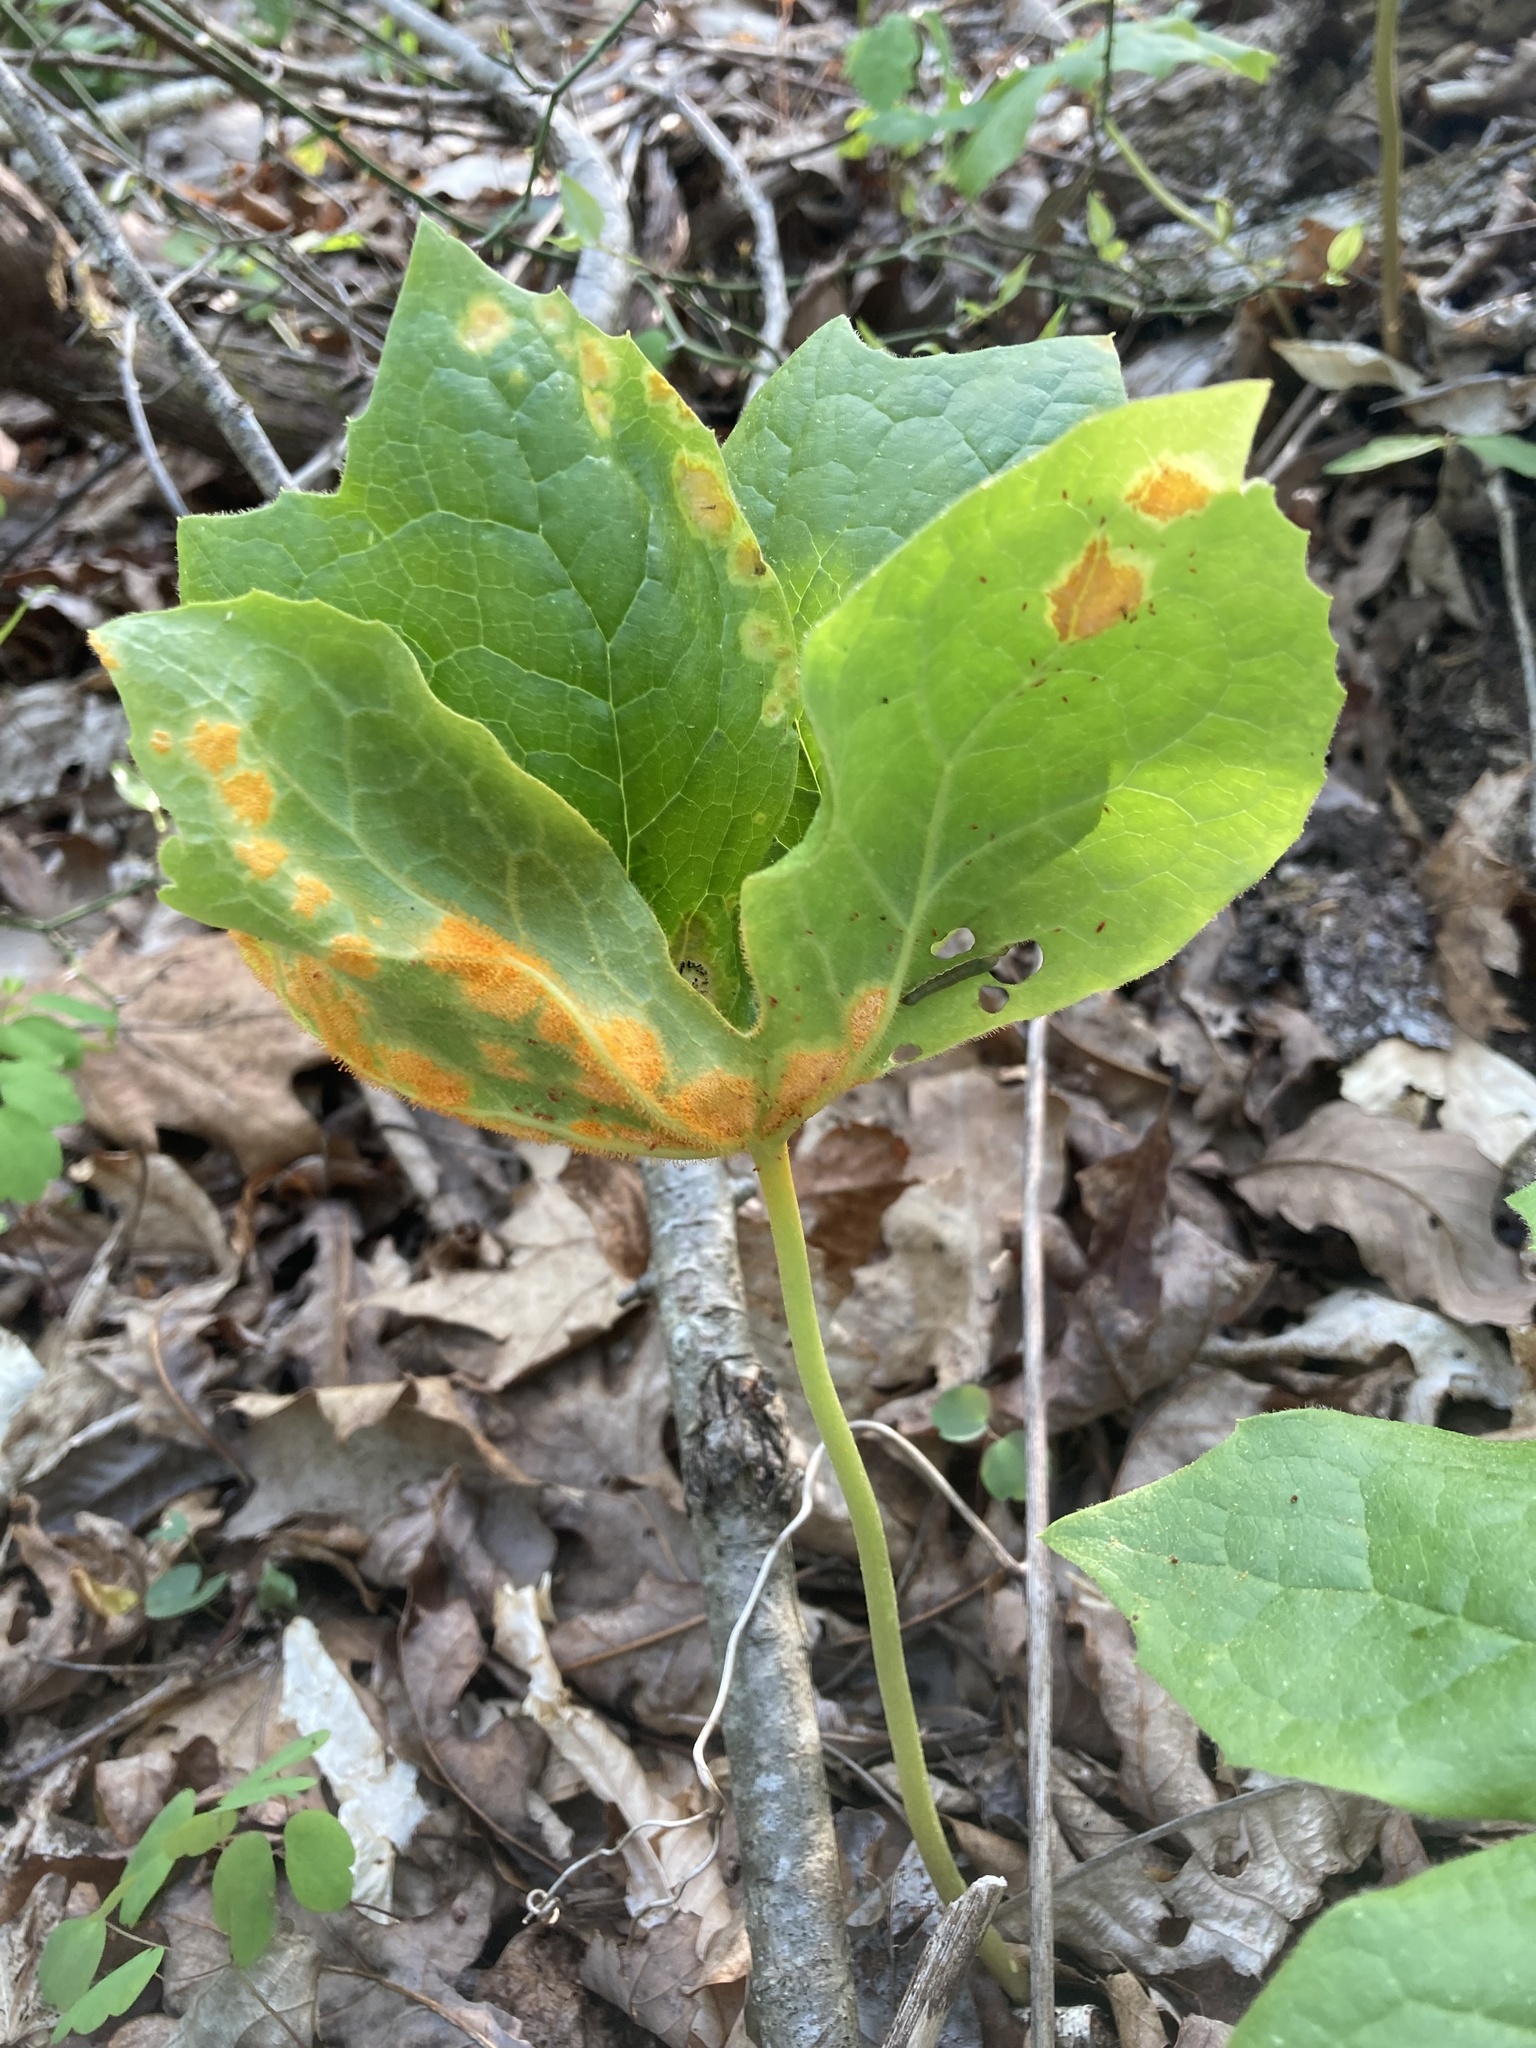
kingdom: Fungi
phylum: Basidiomycota
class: Pucciniomycetes
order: Pucciniales
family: Pucciniaceae
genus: Puccinia
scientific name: Puccinia podophylli
